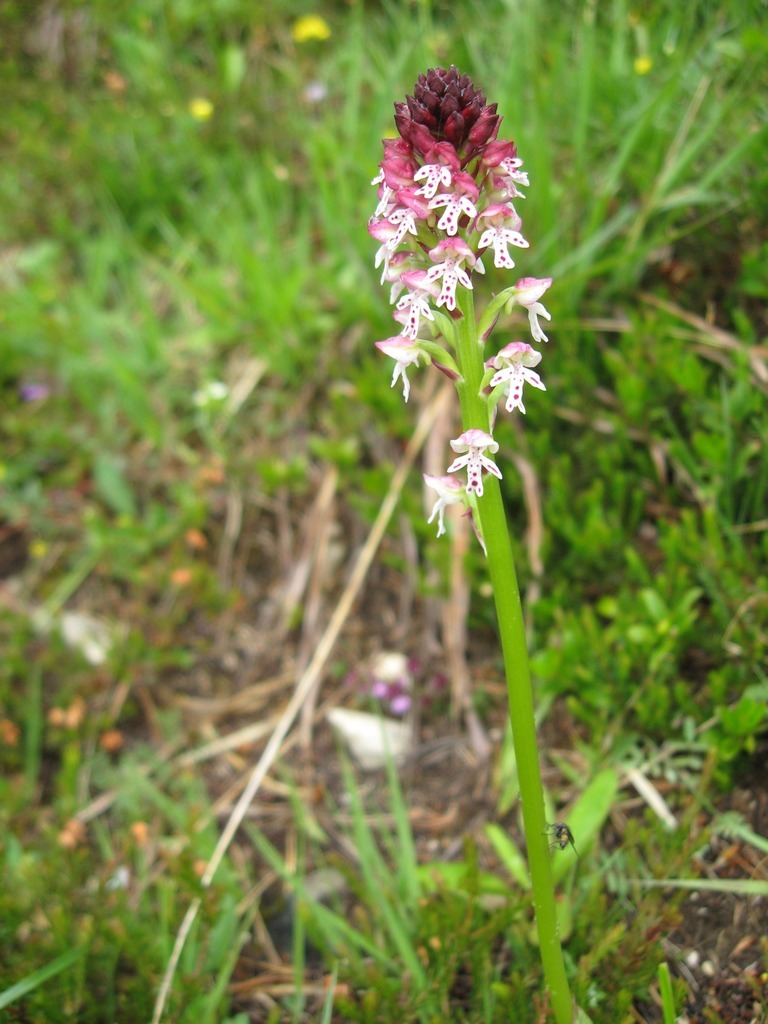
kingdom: Plantae
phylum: Tracheophyta
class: Liliopsida
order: Asparagales
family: Orchidaceae
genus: Neotinea
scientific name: Neotinea ustulata
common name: Burnt orchid
